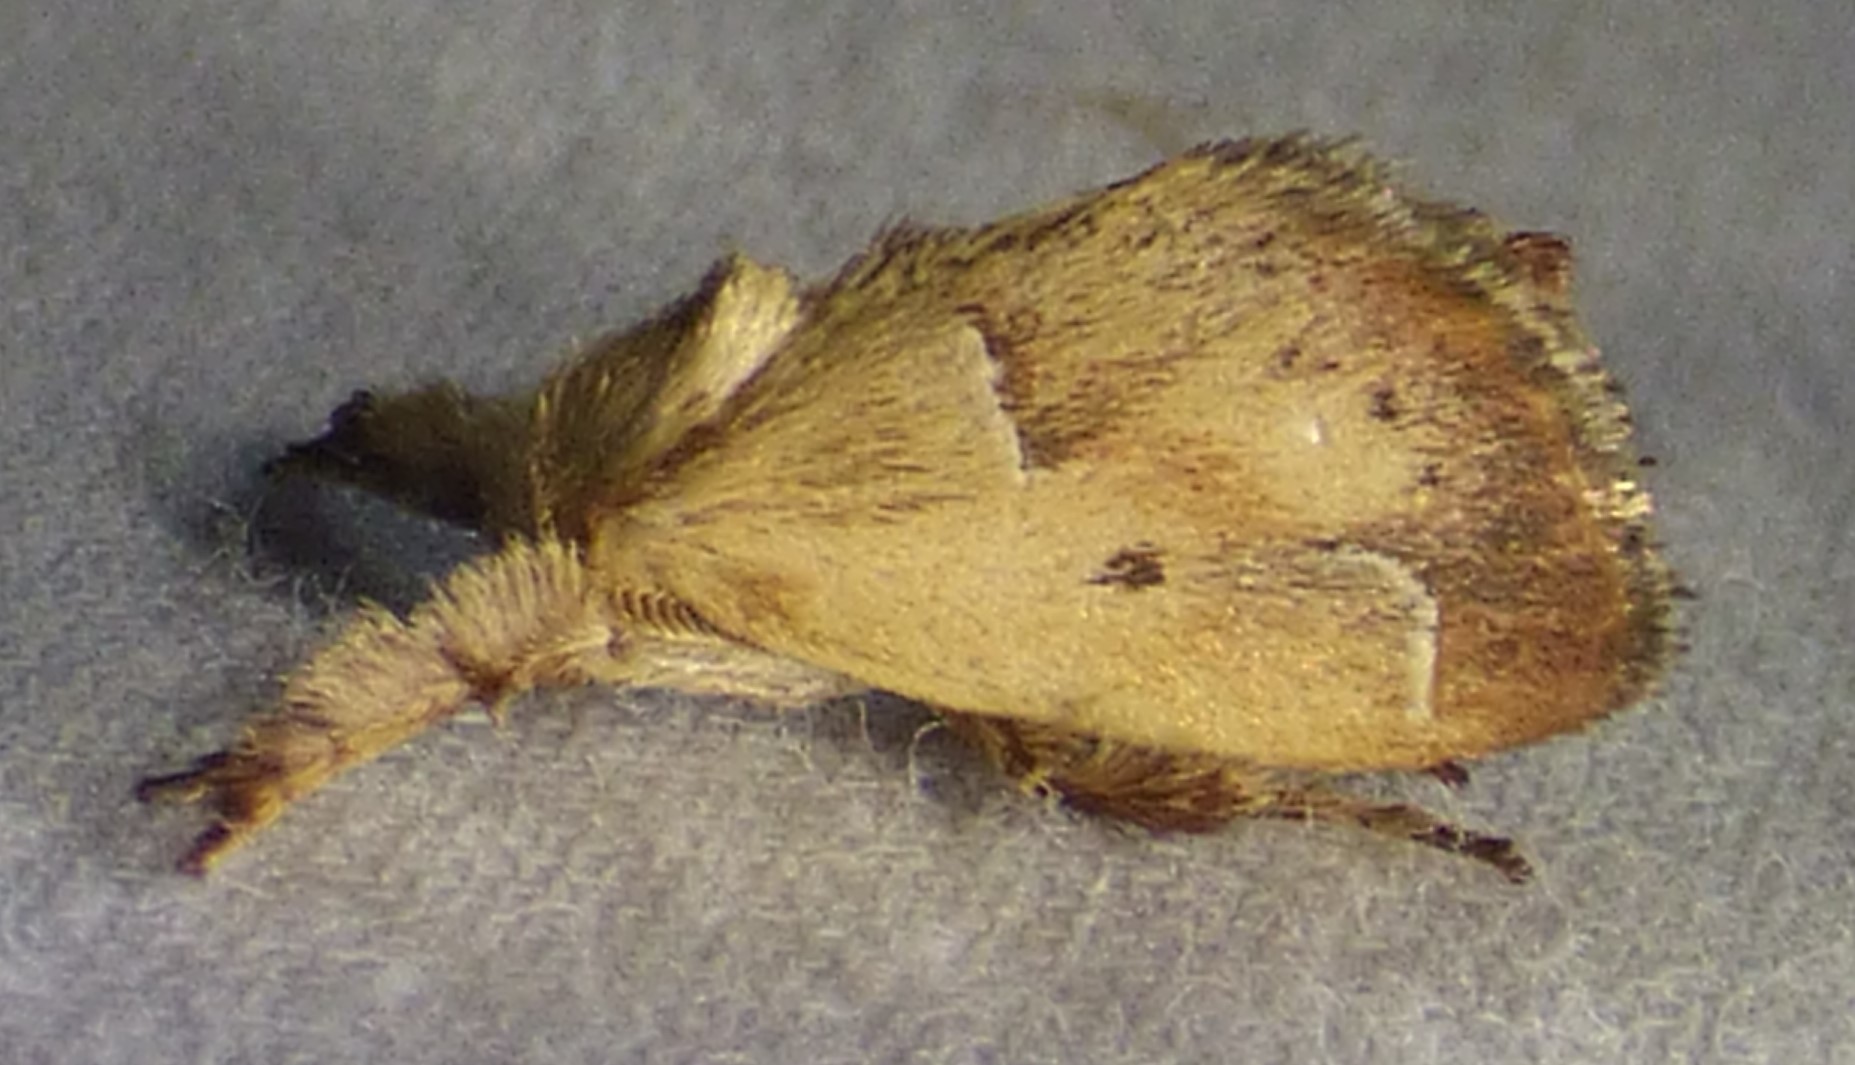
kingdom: Animalia
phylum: Arthropoda
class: Insecta
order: Lepidoptera
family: Limacodidae
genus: Adoneta
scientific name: Adoneta bicaudata
